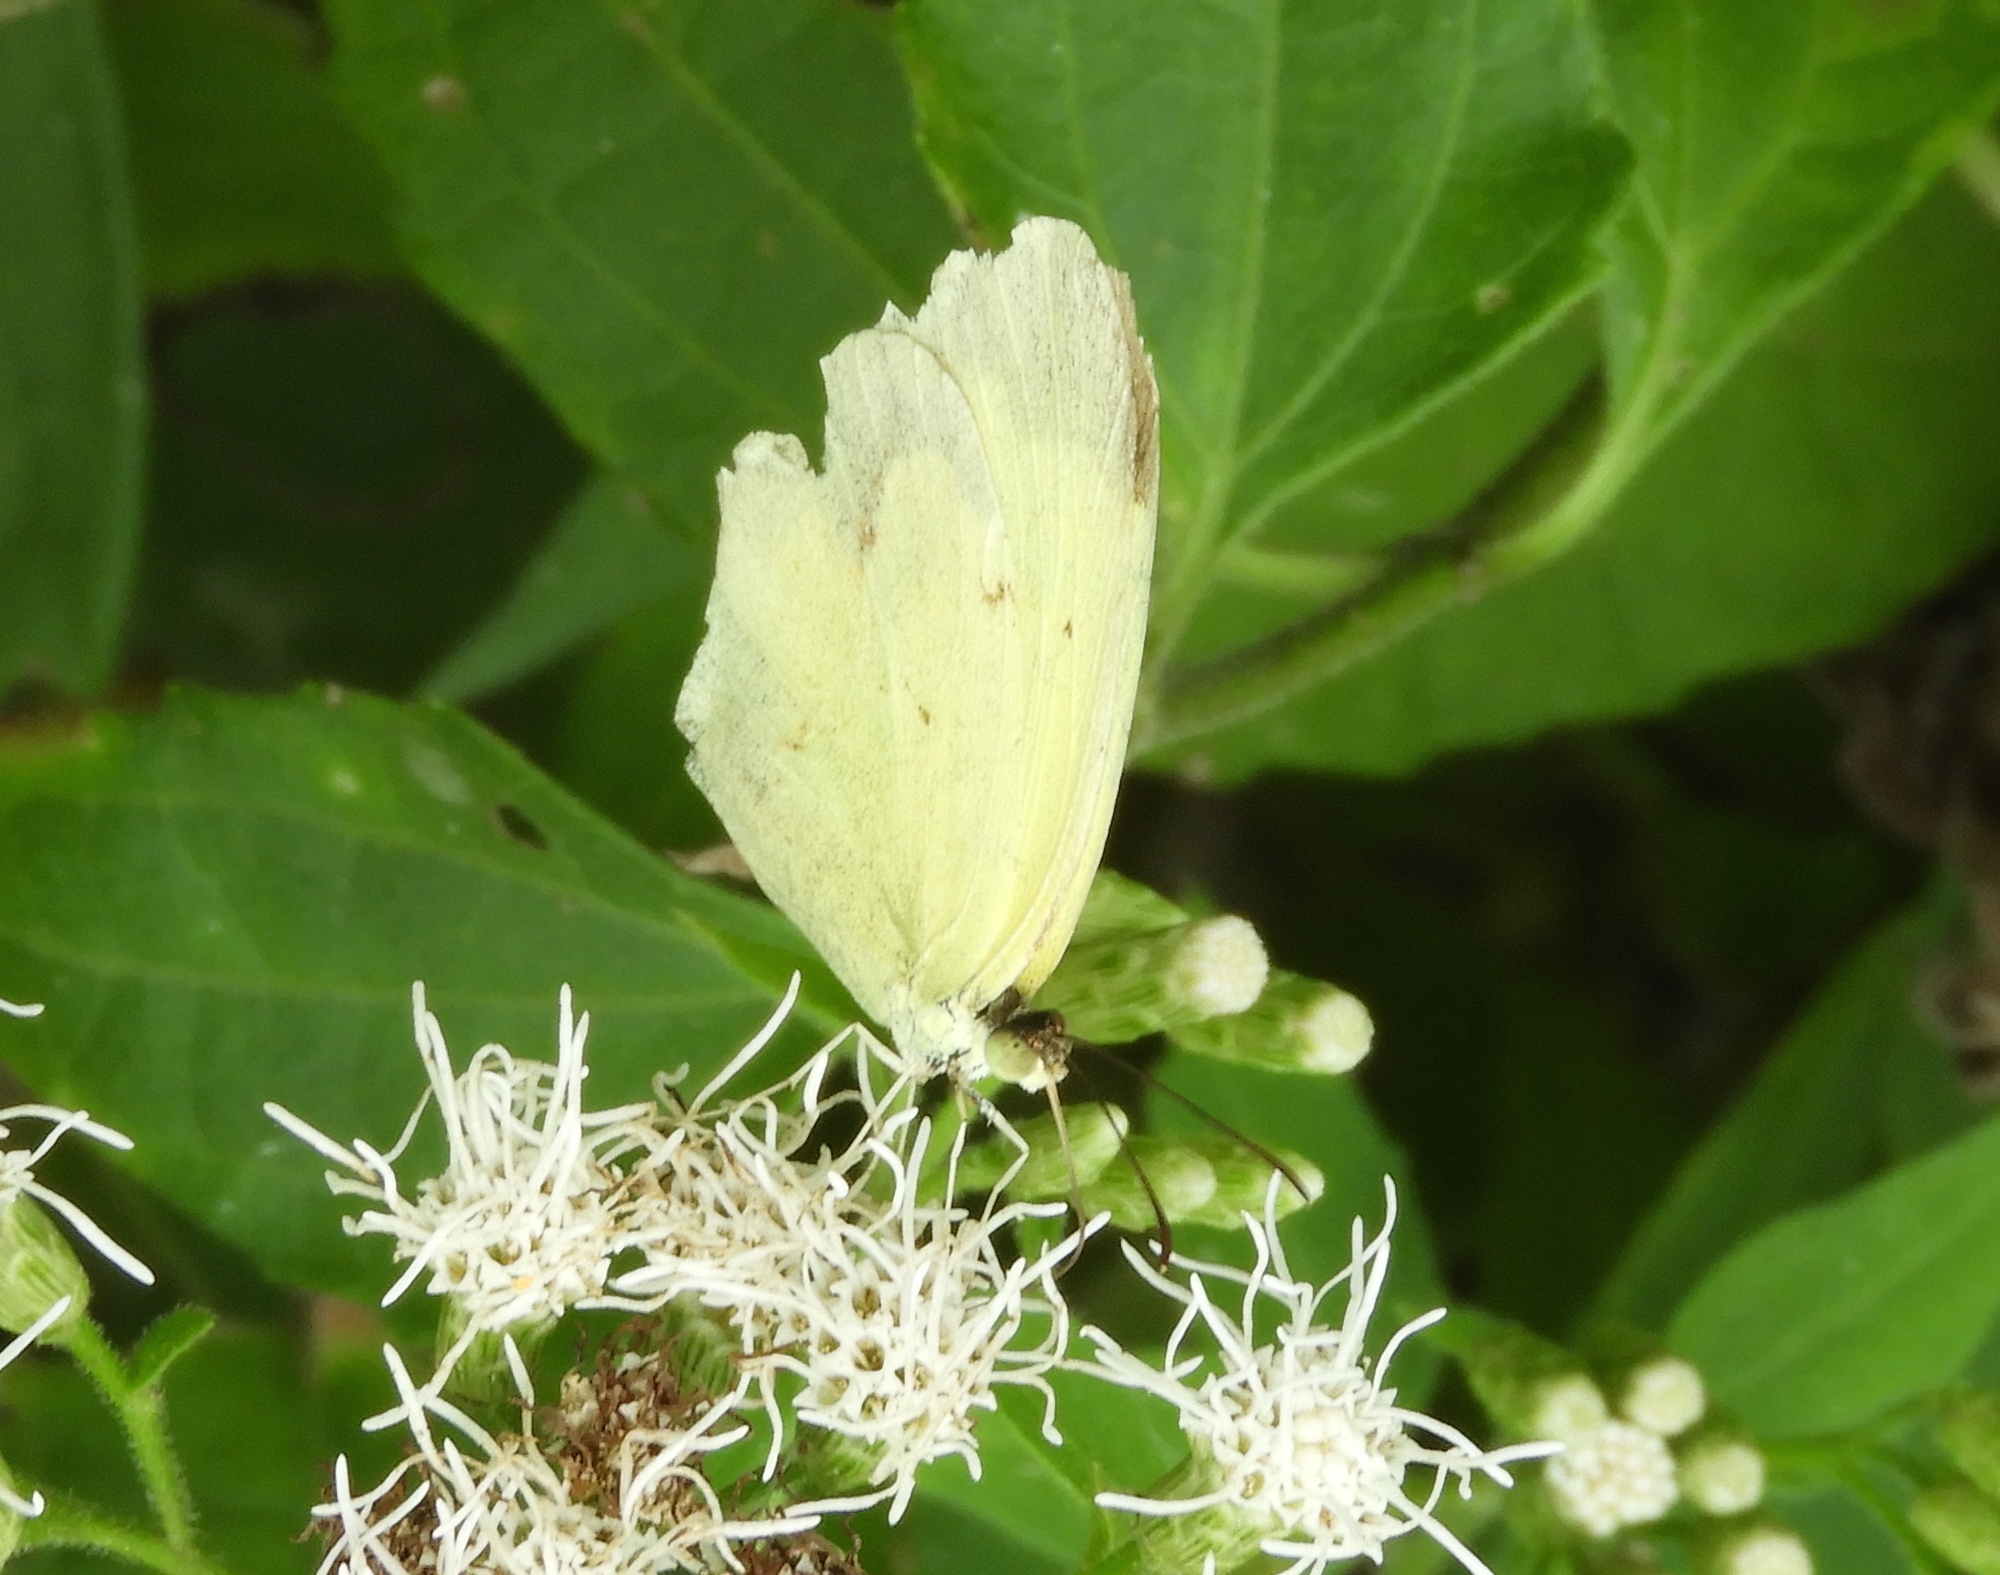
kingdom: Animalia
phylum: Arthropoda
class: Insecta
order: Lepidoptera
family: Pieridae
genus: Abaeis
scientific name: Abaeis boisduvaliana
